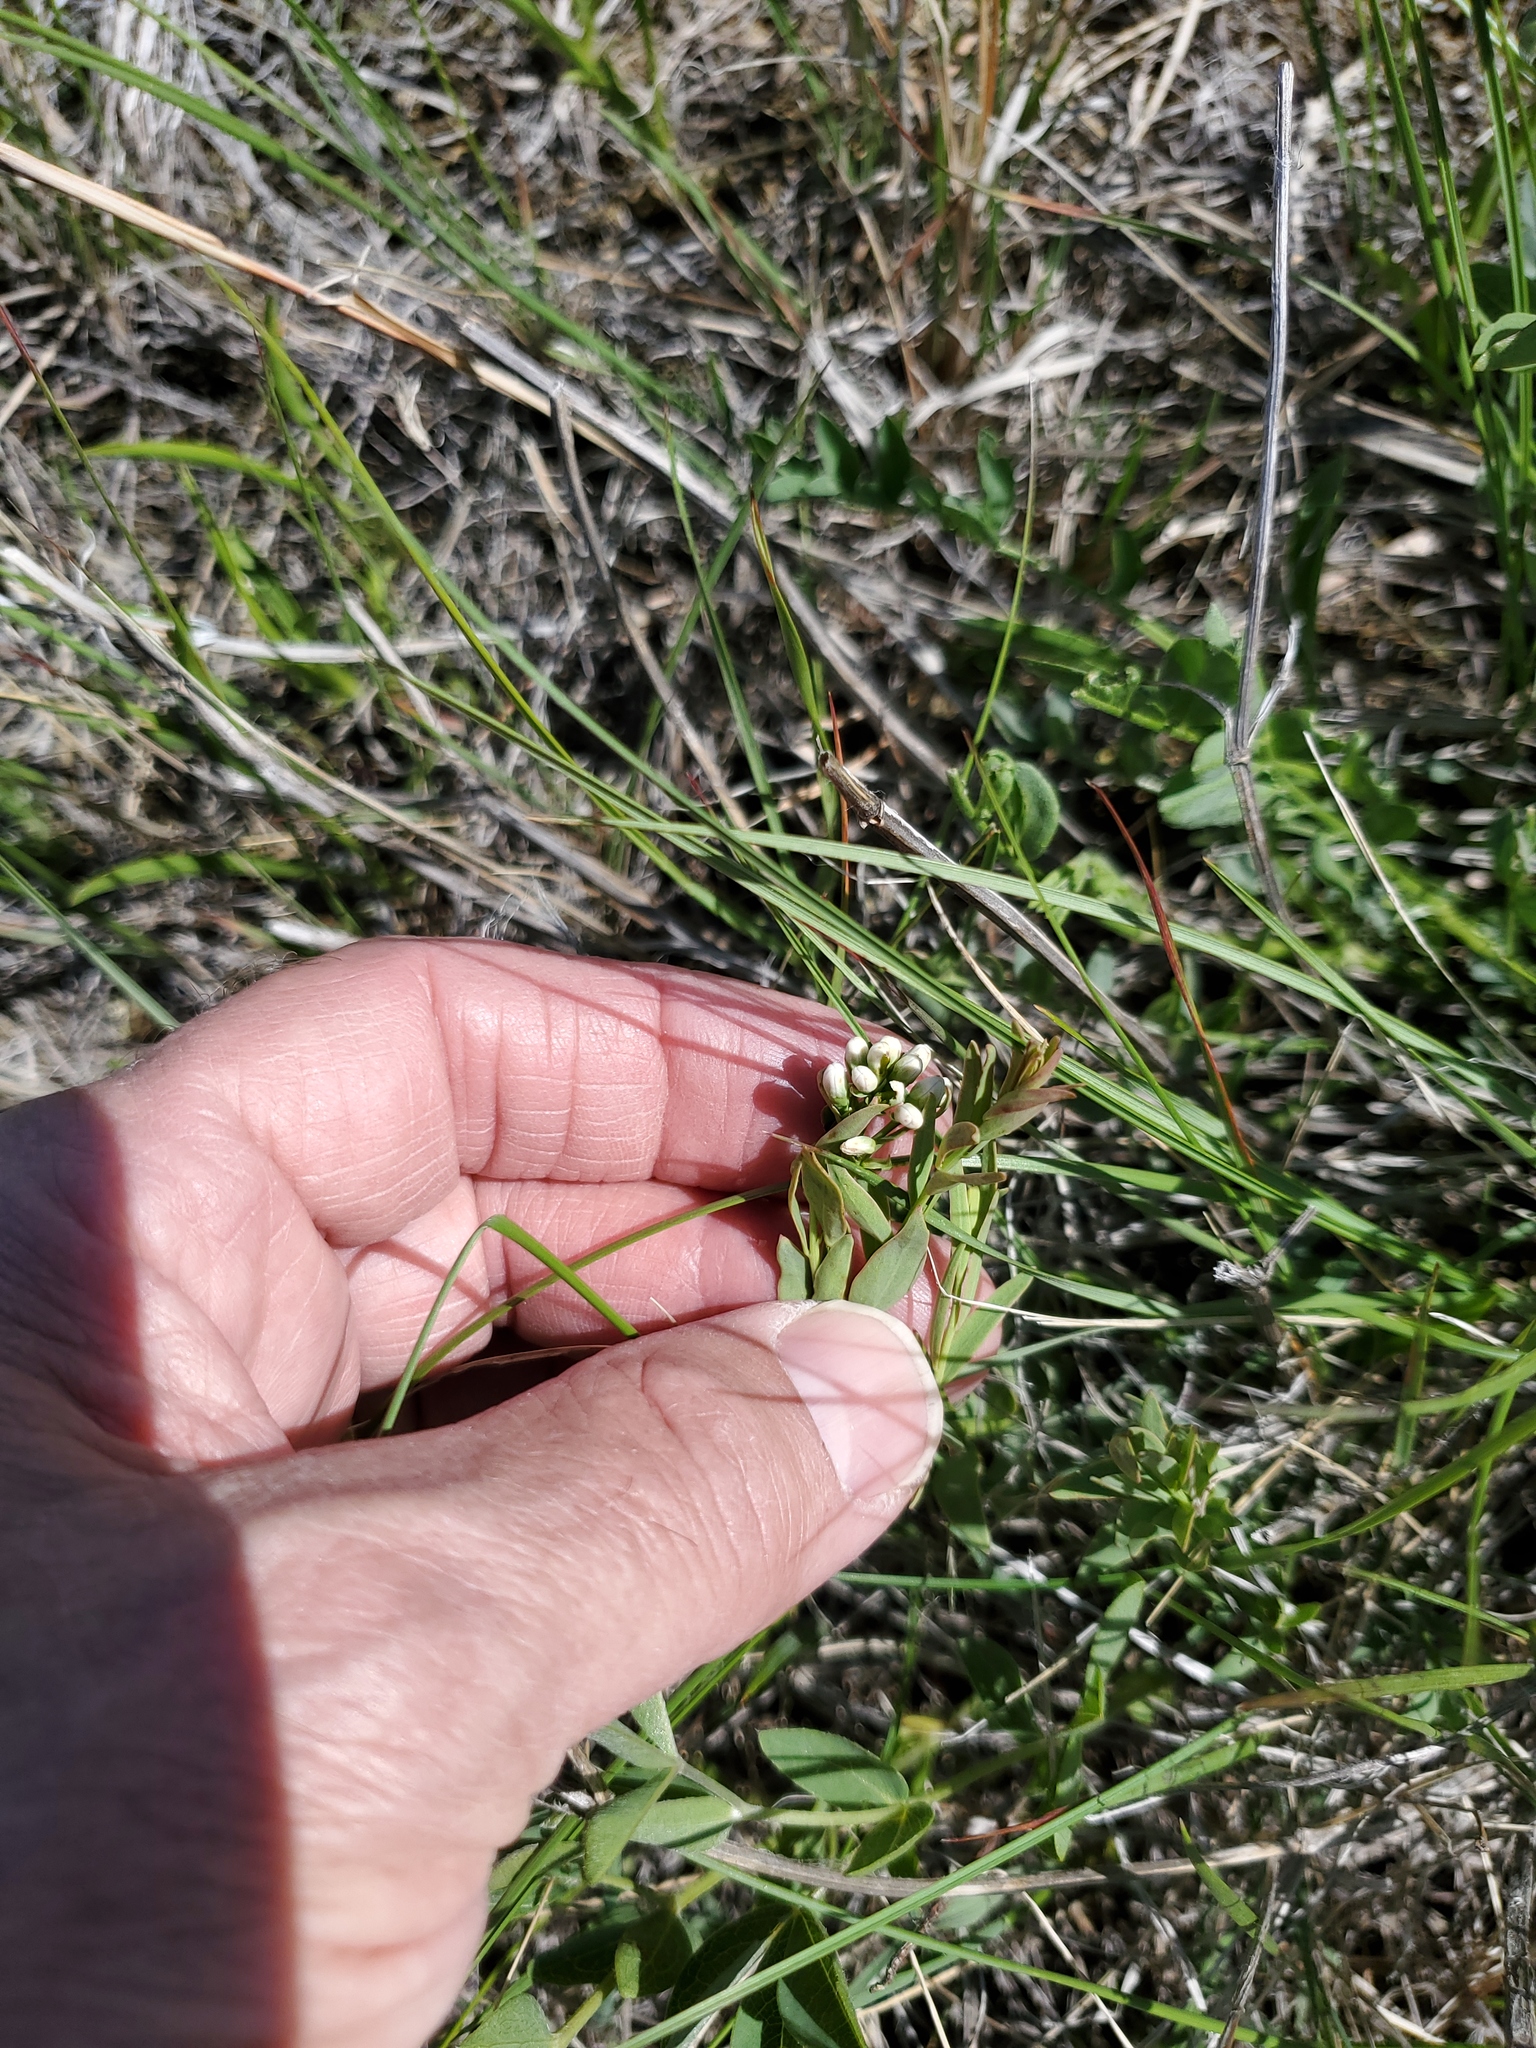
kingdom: Plantae
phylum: Tracheophyta
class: Magnoliopsida
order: Santalales
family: Comandraceae
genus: Comandra
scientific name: Comandra umbellata
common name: Bastard toadflax
